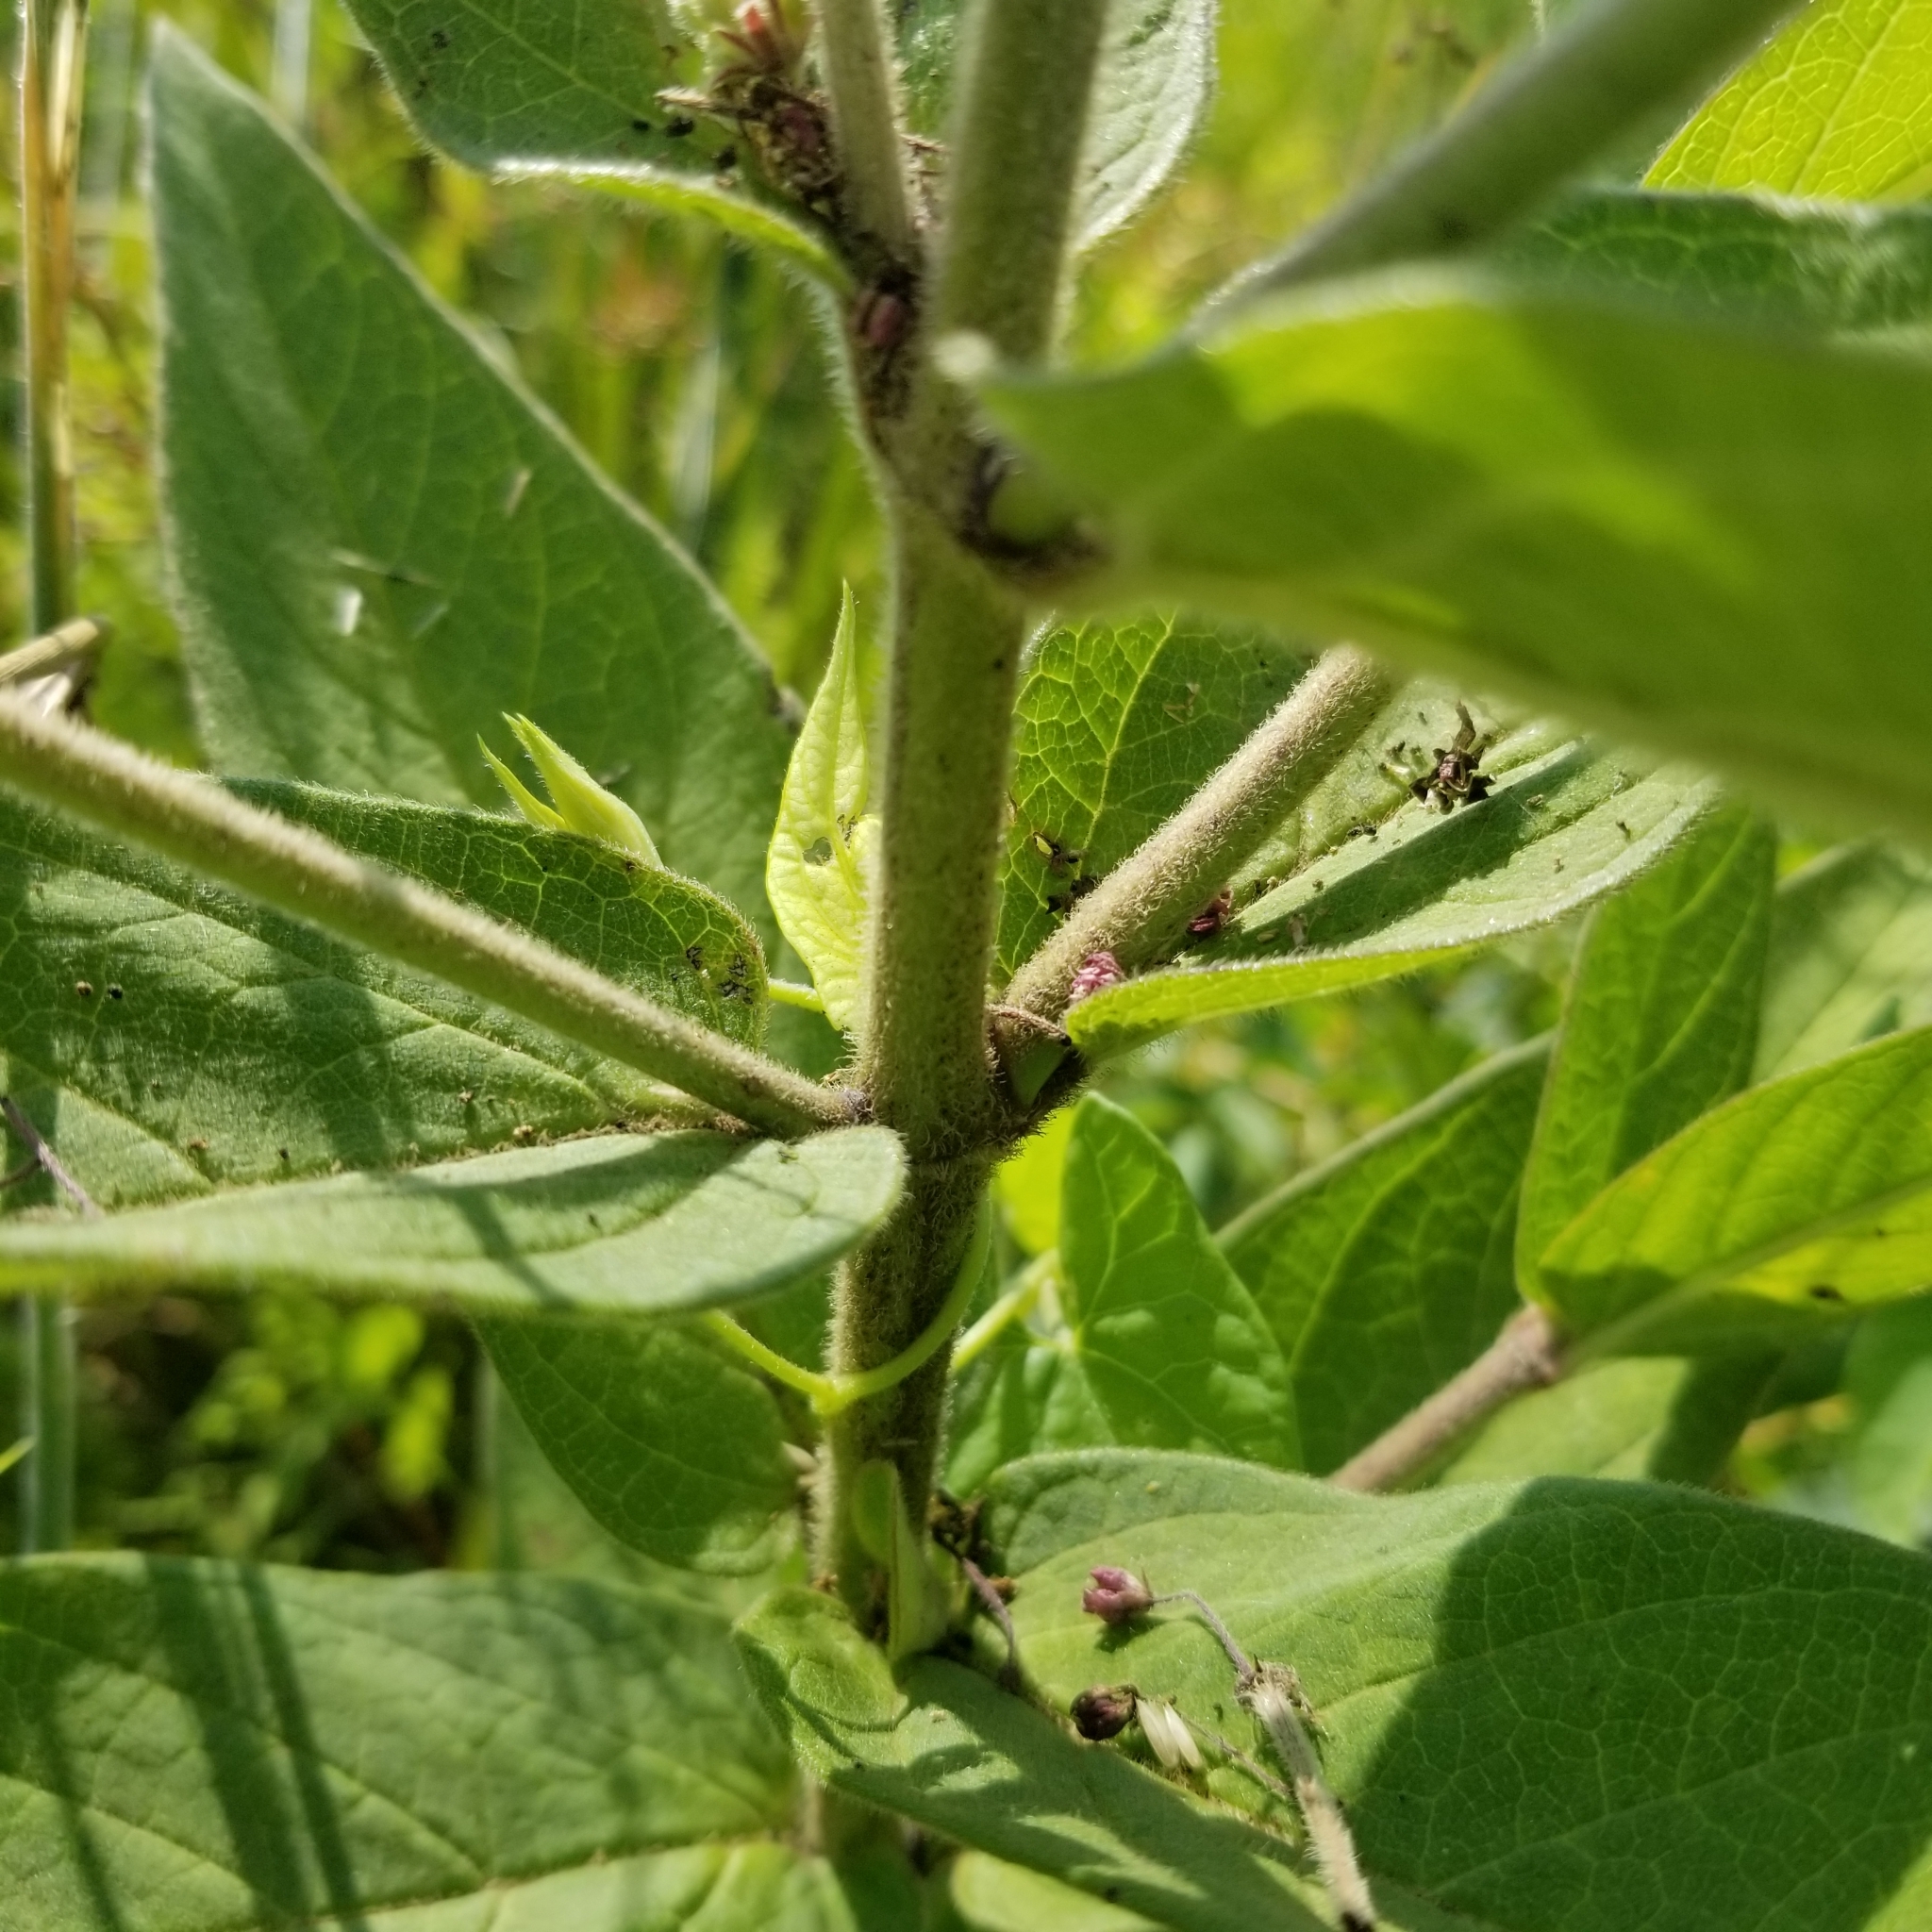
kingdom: Plantae
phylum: Tracheophyta
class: Magnoliopsida
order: Gentianales
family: Apocynaceae
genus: Asclepias
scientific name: Asclepias incarnata
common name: Swamp milkweed
